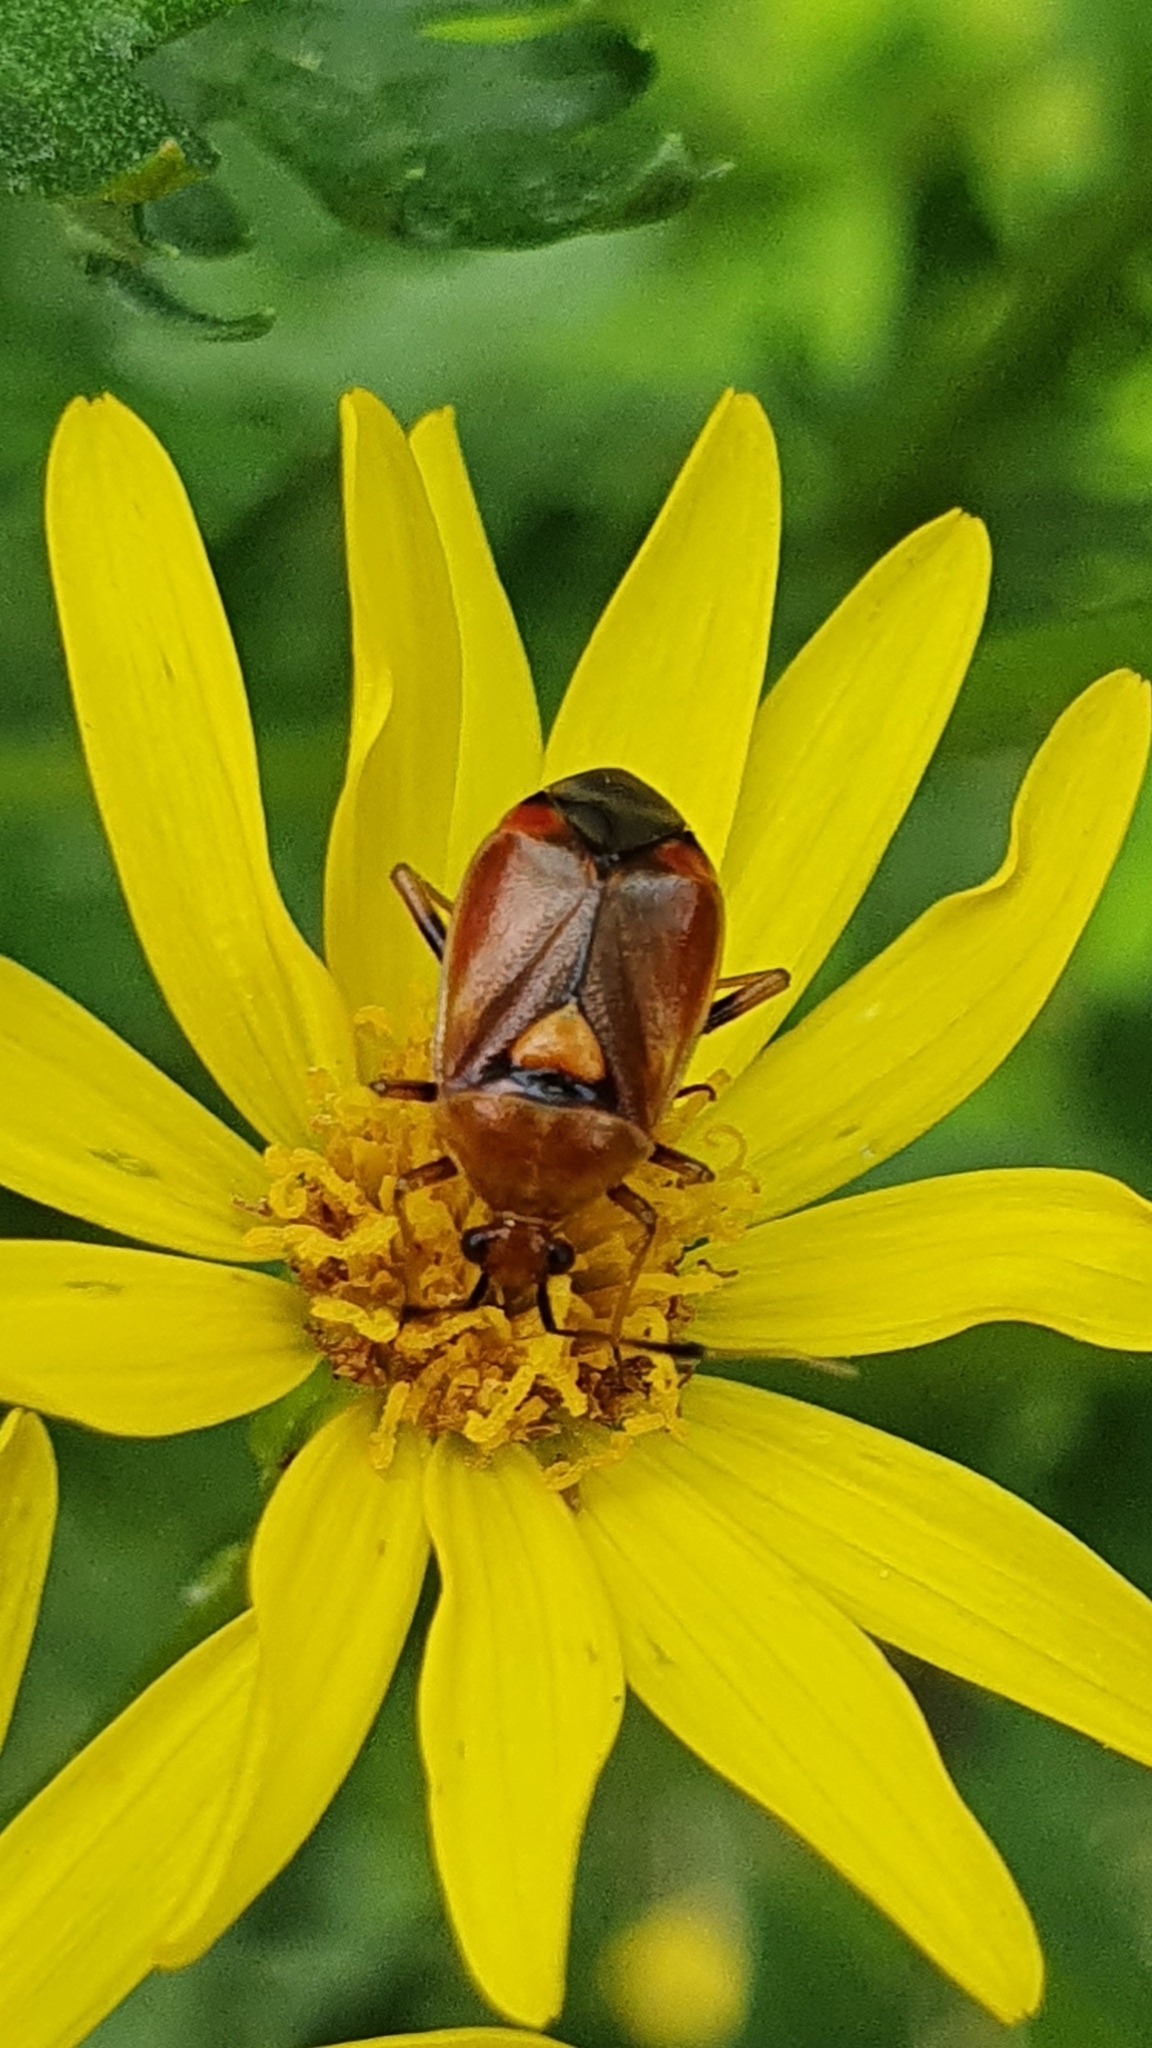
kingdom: Animalia
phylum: Arthropoda
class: Insecta
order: Hemiptera
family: Miridae
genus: Deraeocoris
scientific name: Deraeocoris ruber
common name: Plant bug
